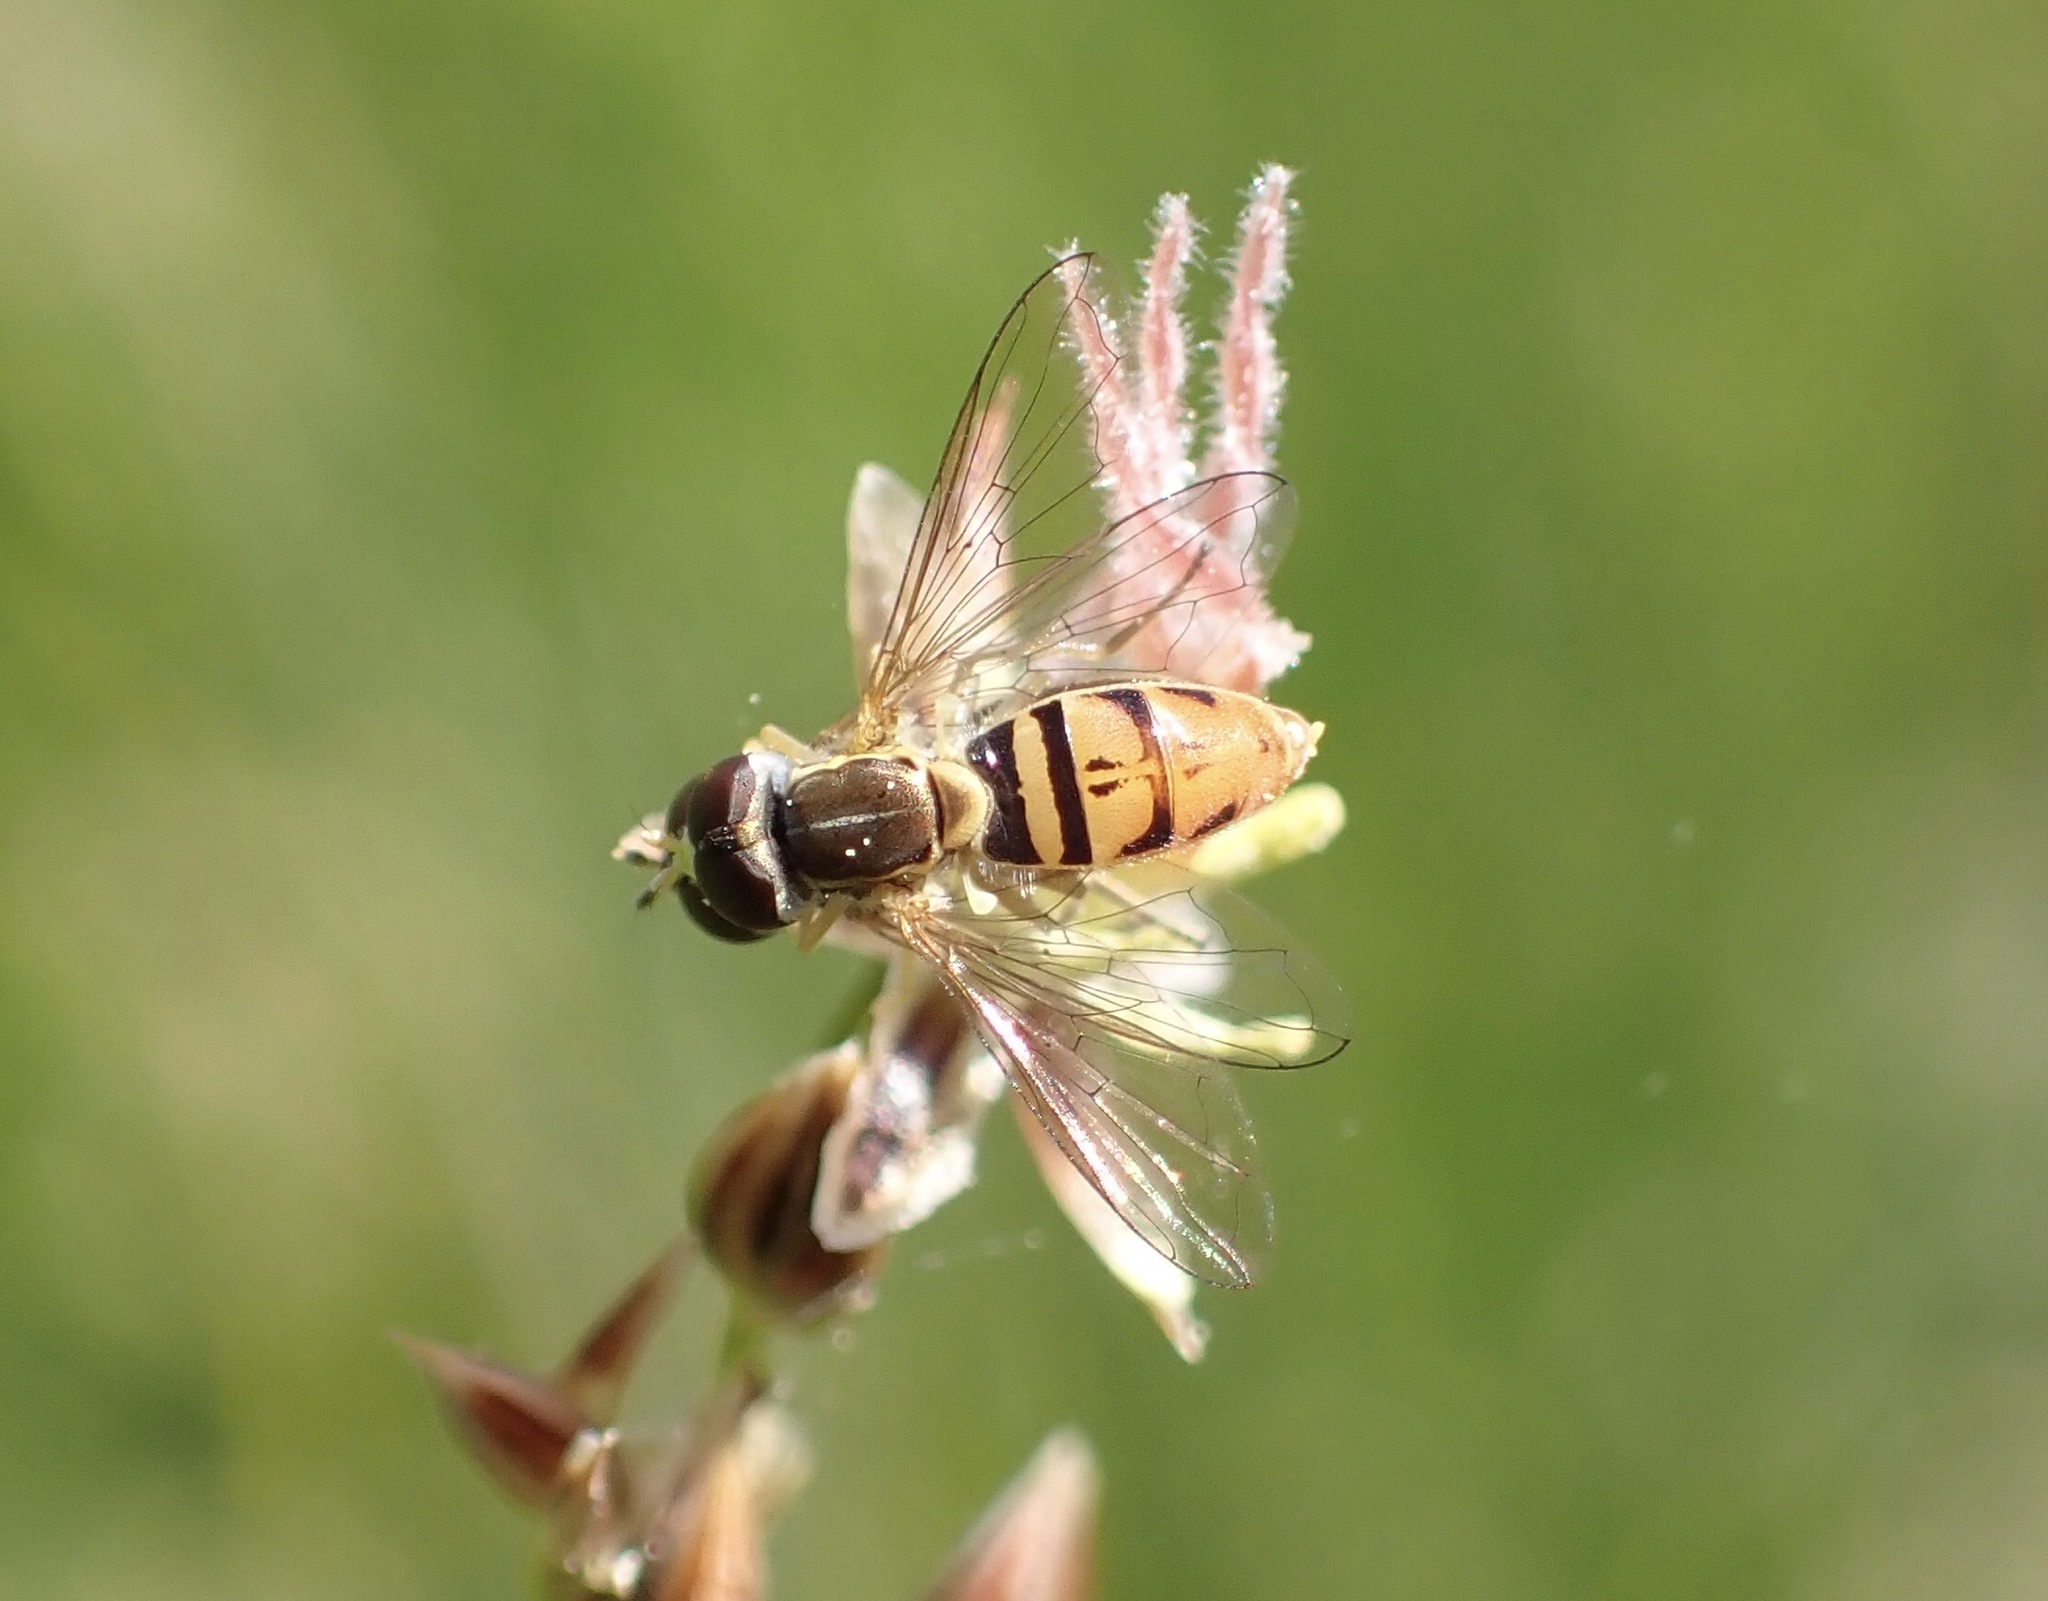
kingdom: Animalia
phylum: Arthropoda
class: Insecta
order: Diptera
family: Syrphidae
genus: Toxomerus
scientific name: Toxomerus marginatus
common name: Syrphid fly
